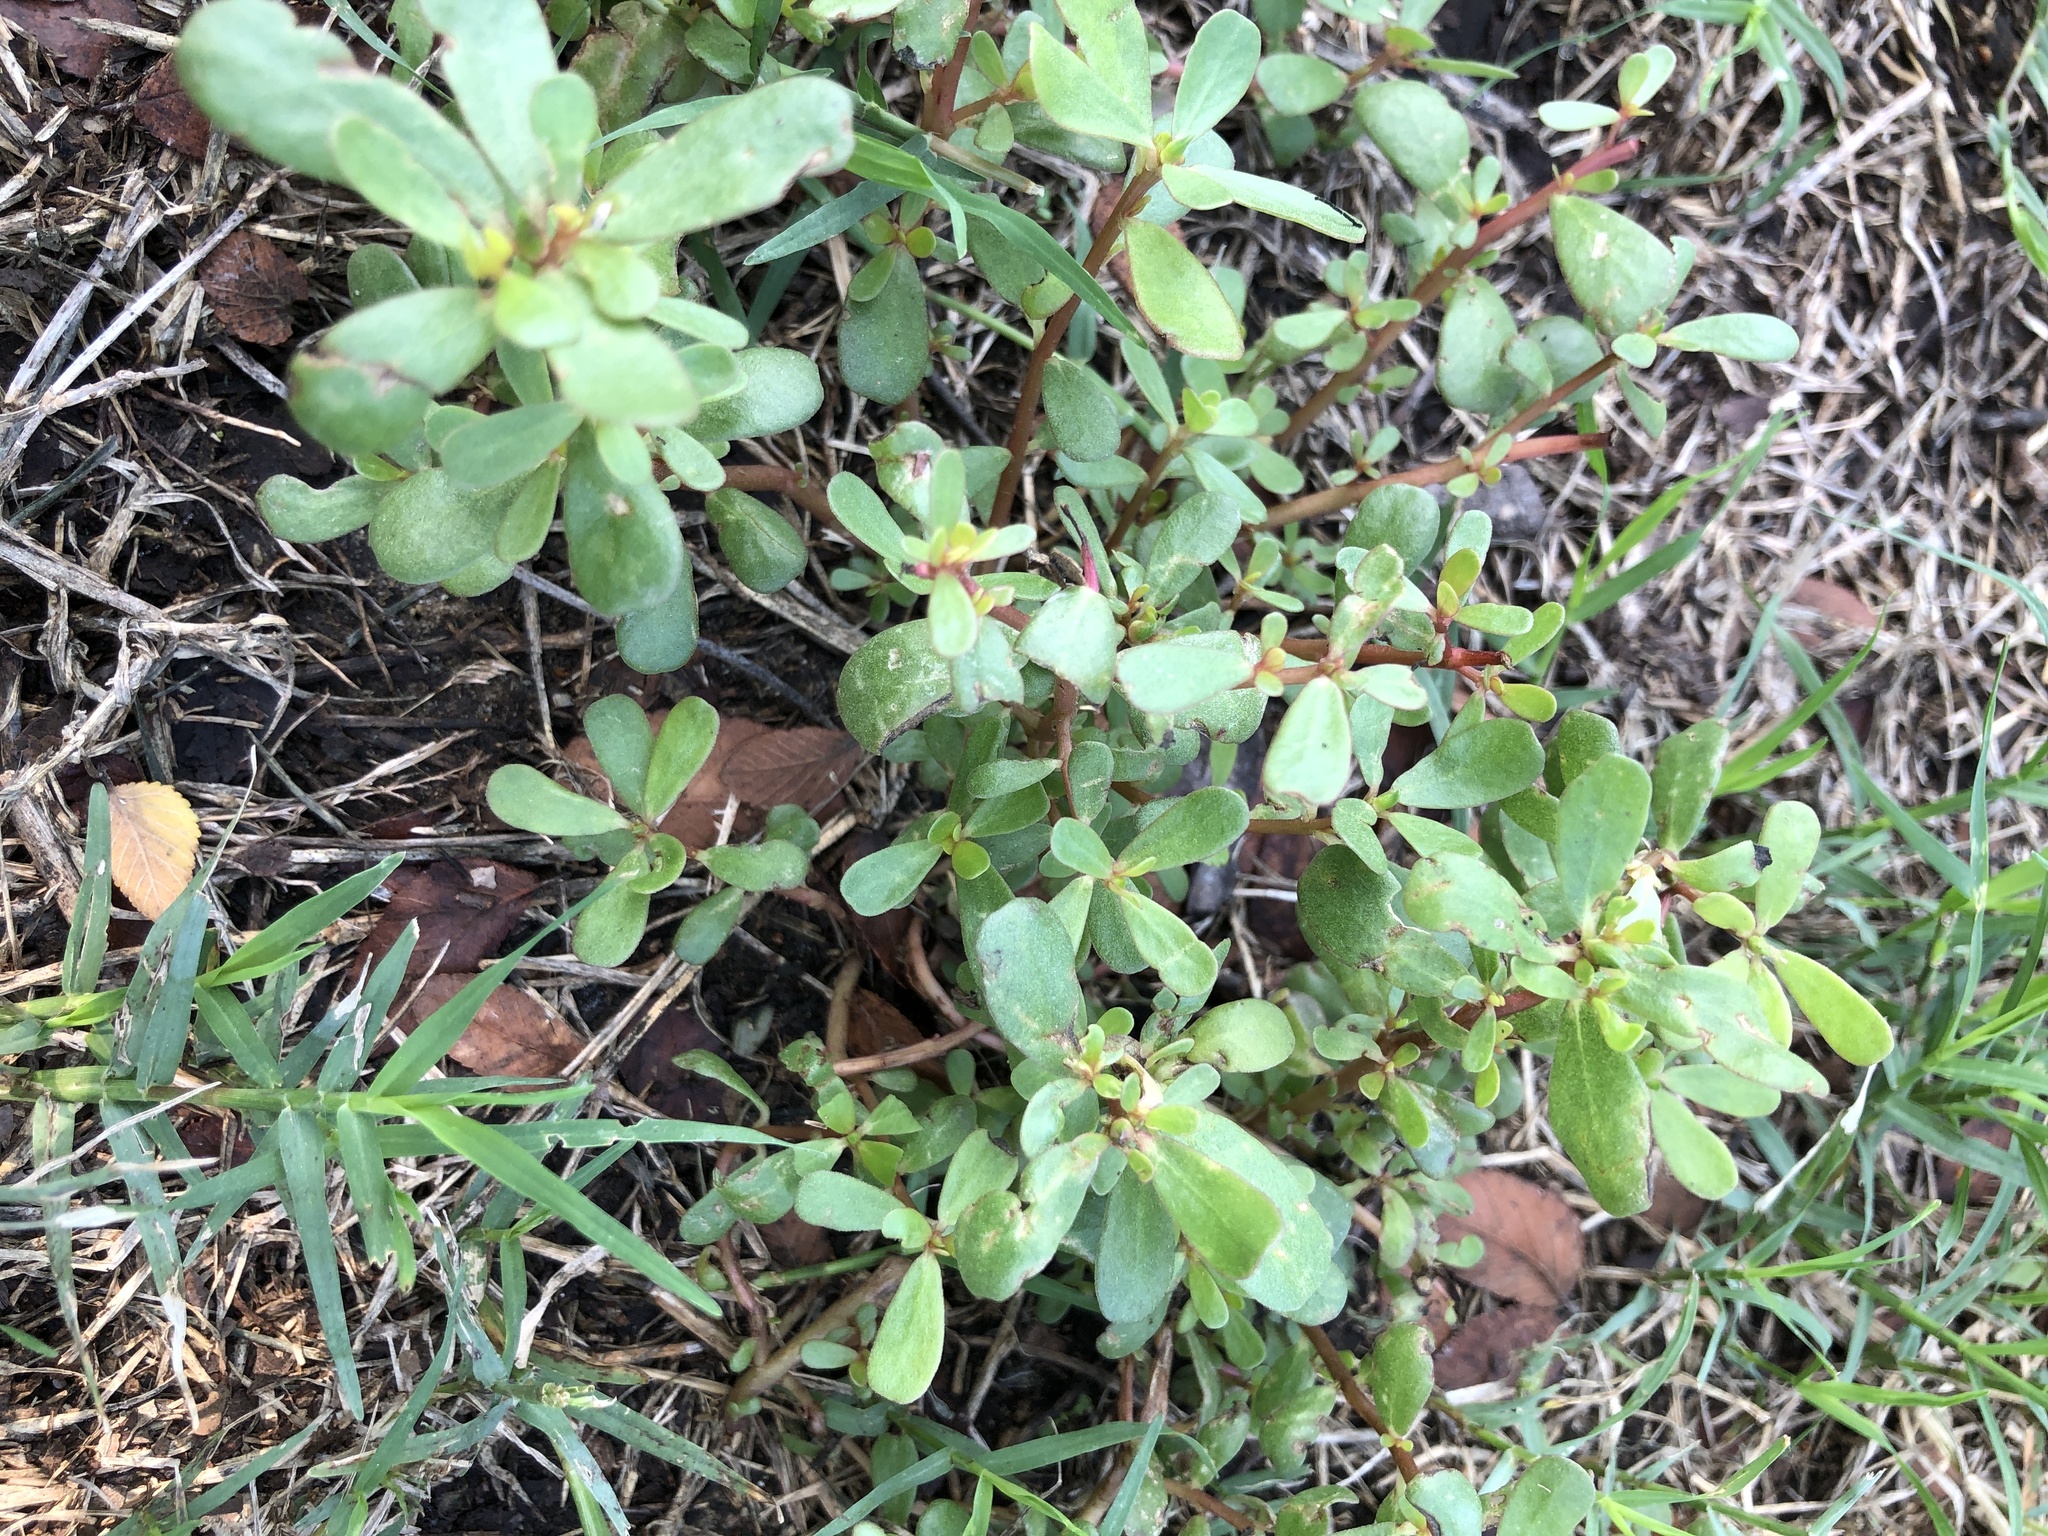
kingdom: Plantae
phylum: Tracheophyta
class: Magnoliopsida
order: Caryophyllales
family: Portulacaceae
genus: Portulaca
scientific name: Portulaca oleracea
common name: Common purslane
